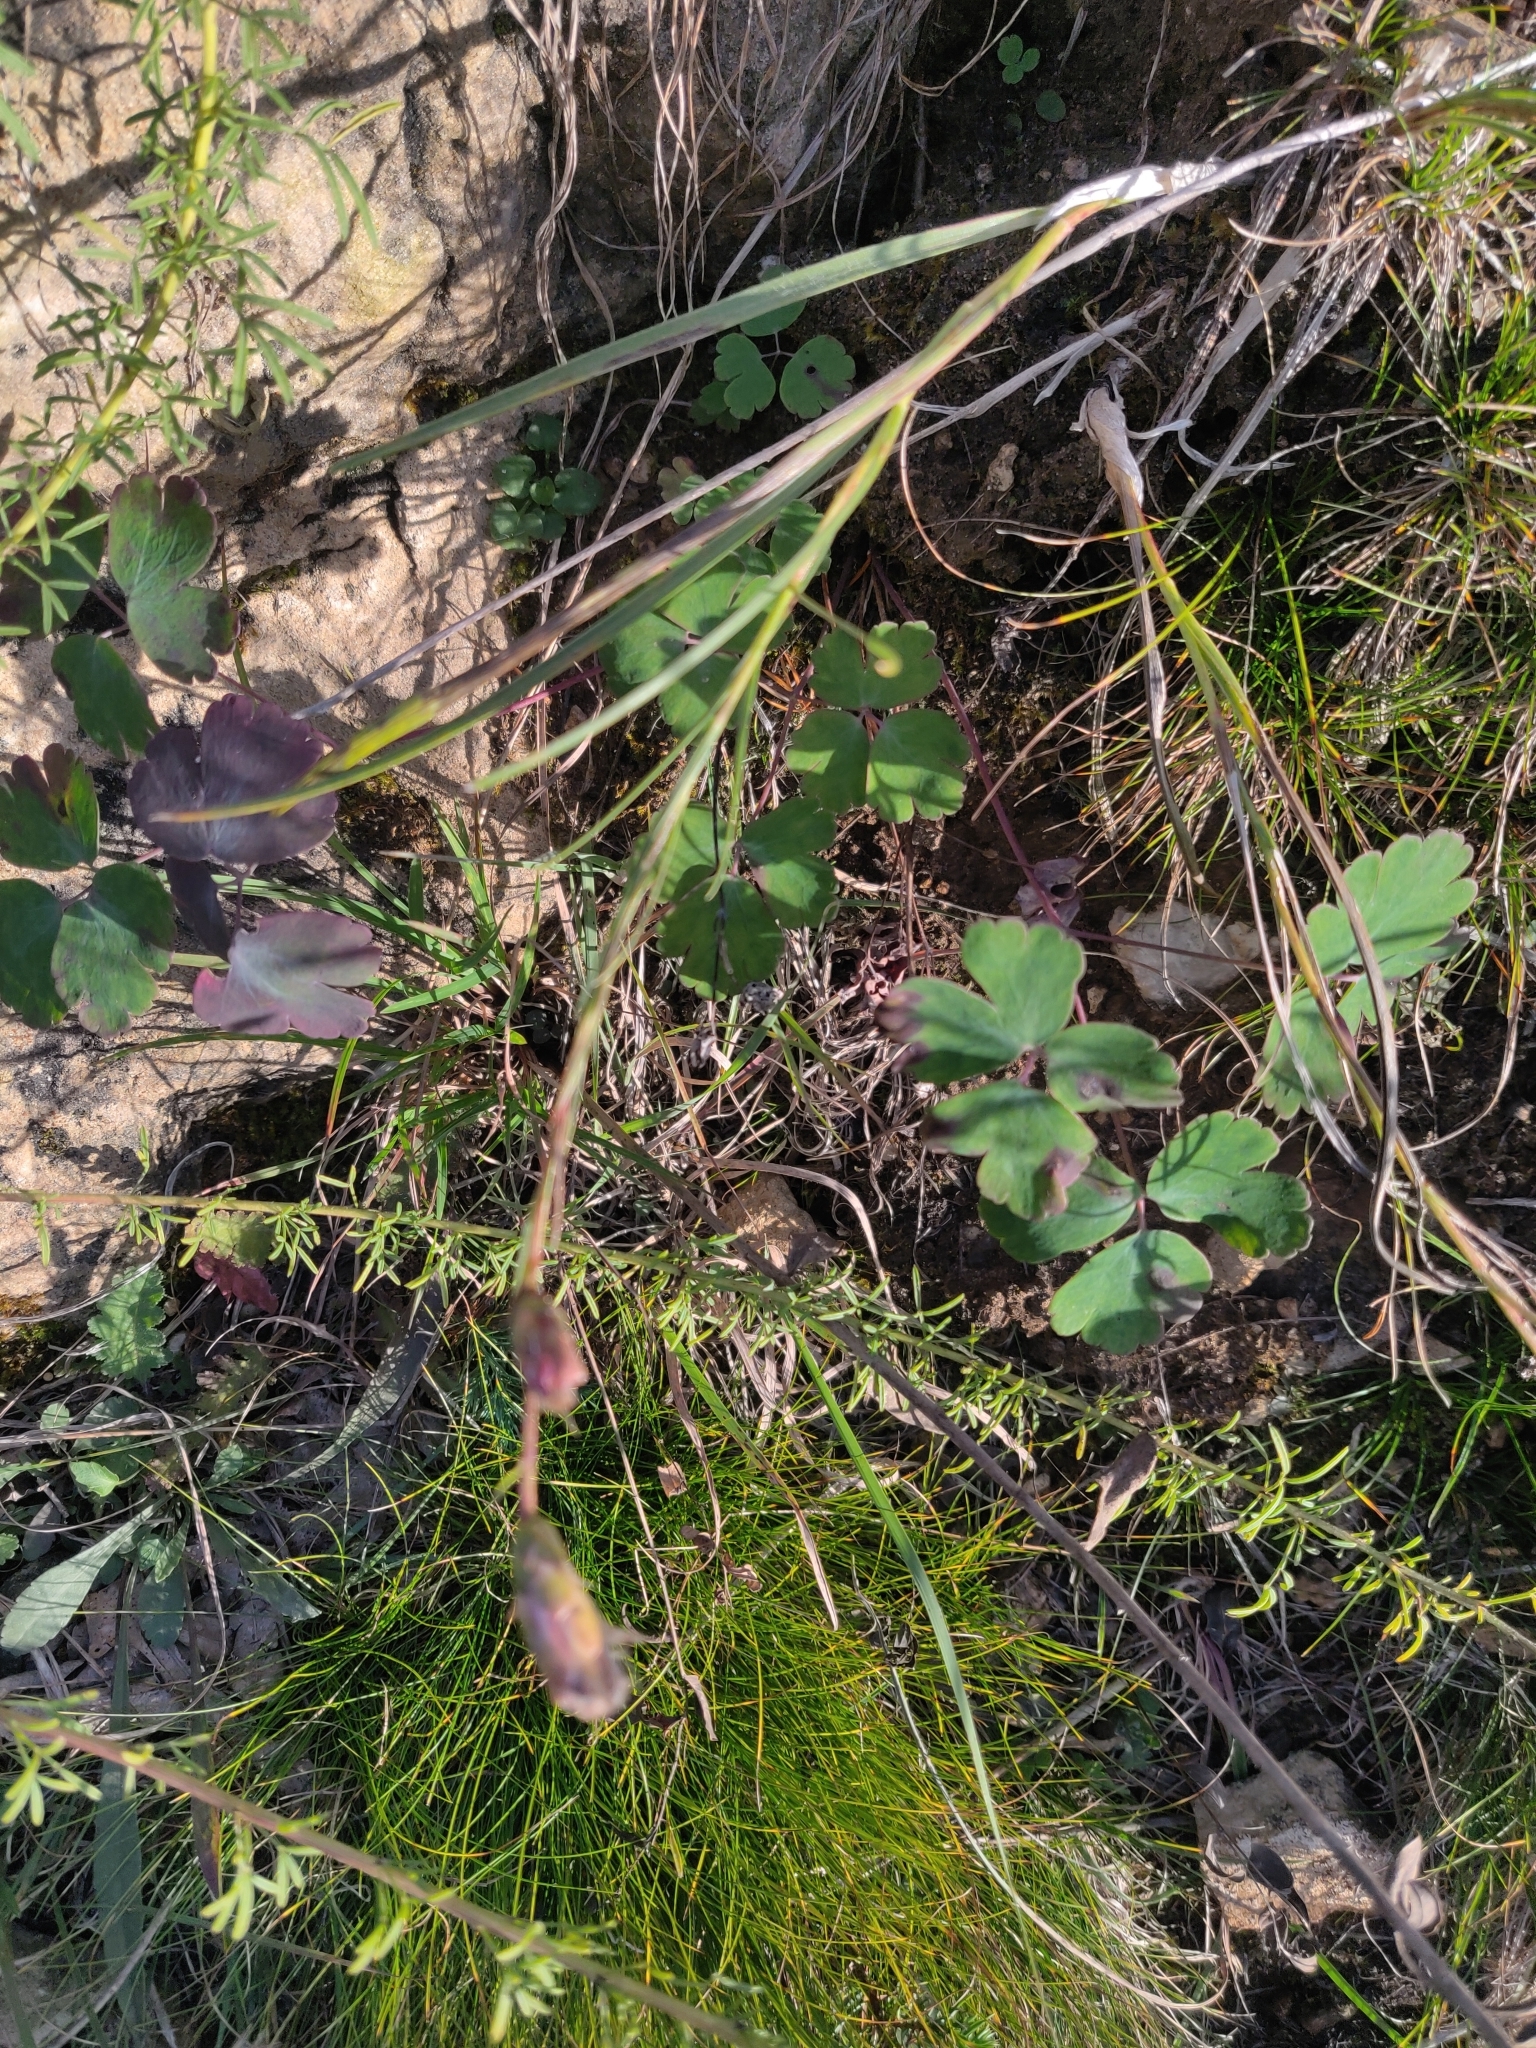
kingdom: Plantae
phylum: Tracheophyta
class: Magnoliopsida
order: Asterales
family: Asteraceae
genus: Liatris
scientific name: Liatris cylindracea
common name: Few-head blazingstar
